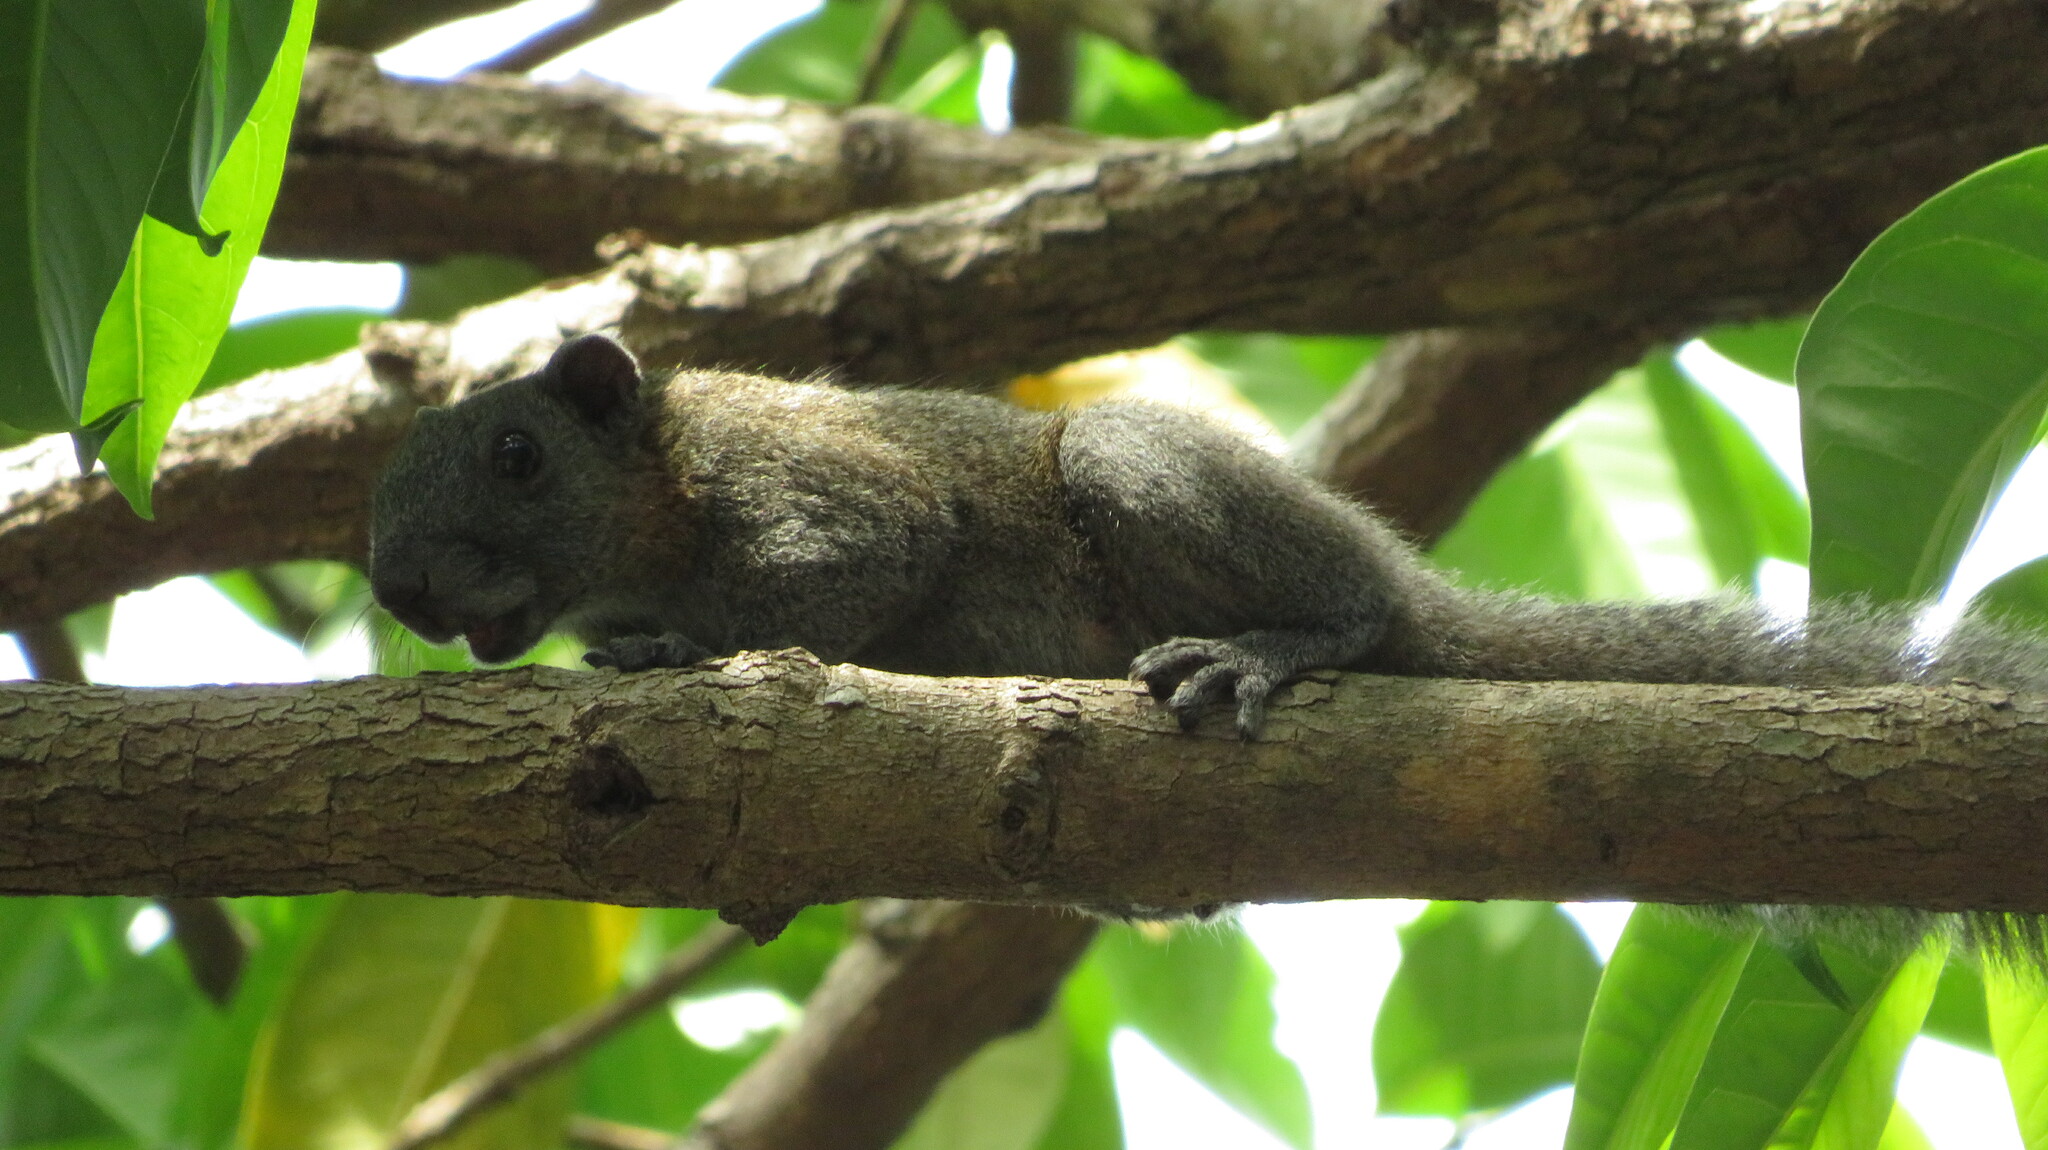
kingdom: Animalia
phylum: Chordata
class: Mammalia
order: Rodentia
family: Sciuridae
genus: Callosciurus
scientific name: Callosciurus caniceps
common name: Gray-bellied squirrel
